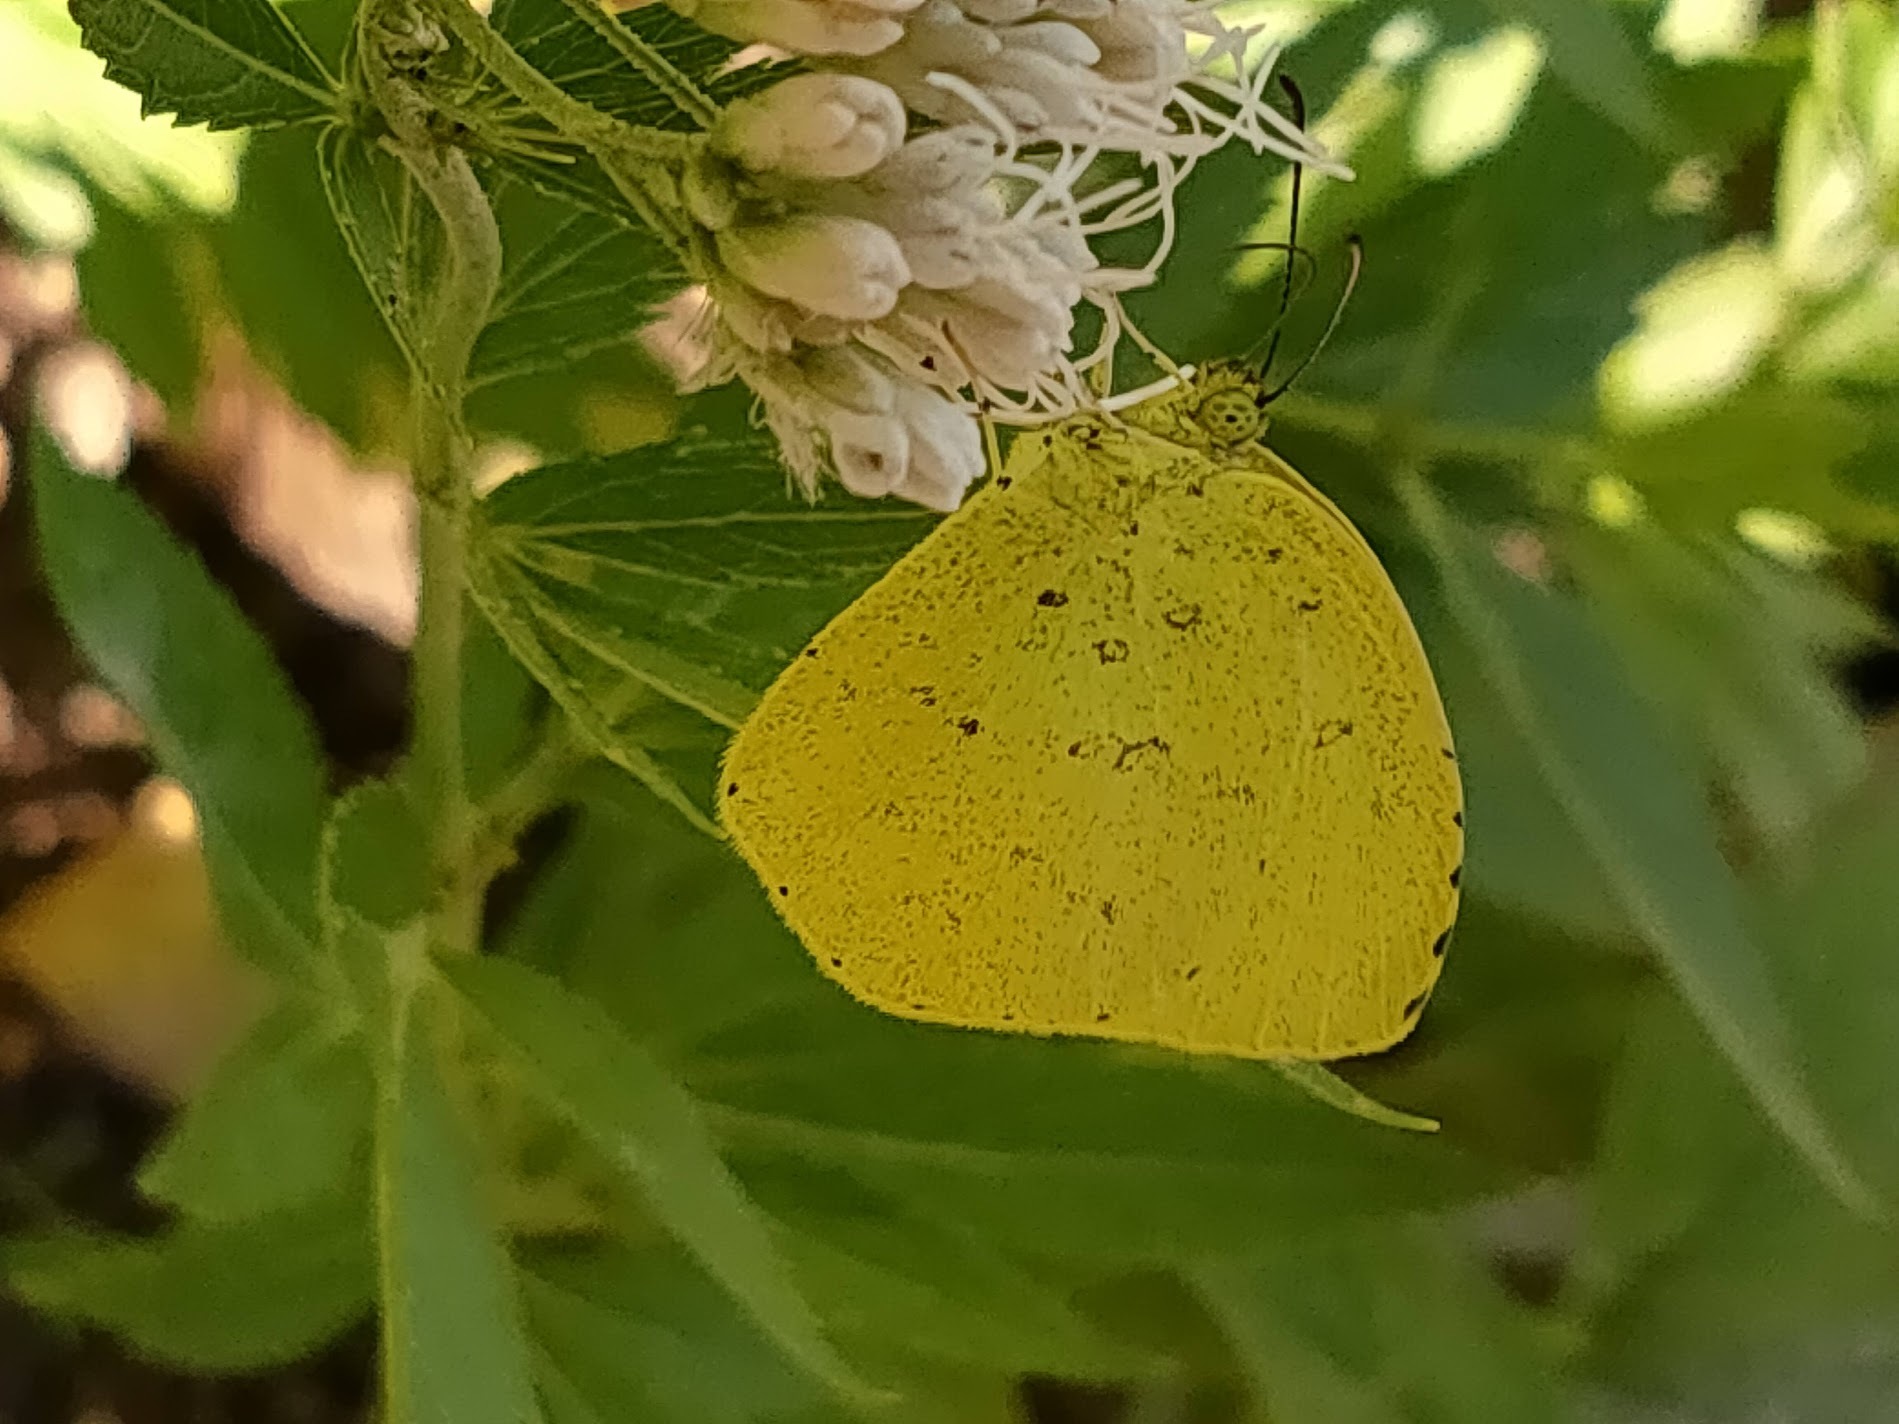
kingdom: Animalia
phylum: Arthropoda
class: Insecta
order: Lepidoptera
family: Pieridae
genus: Eurema
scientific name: Eurema mandarina
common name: Japanese common grass yellow
